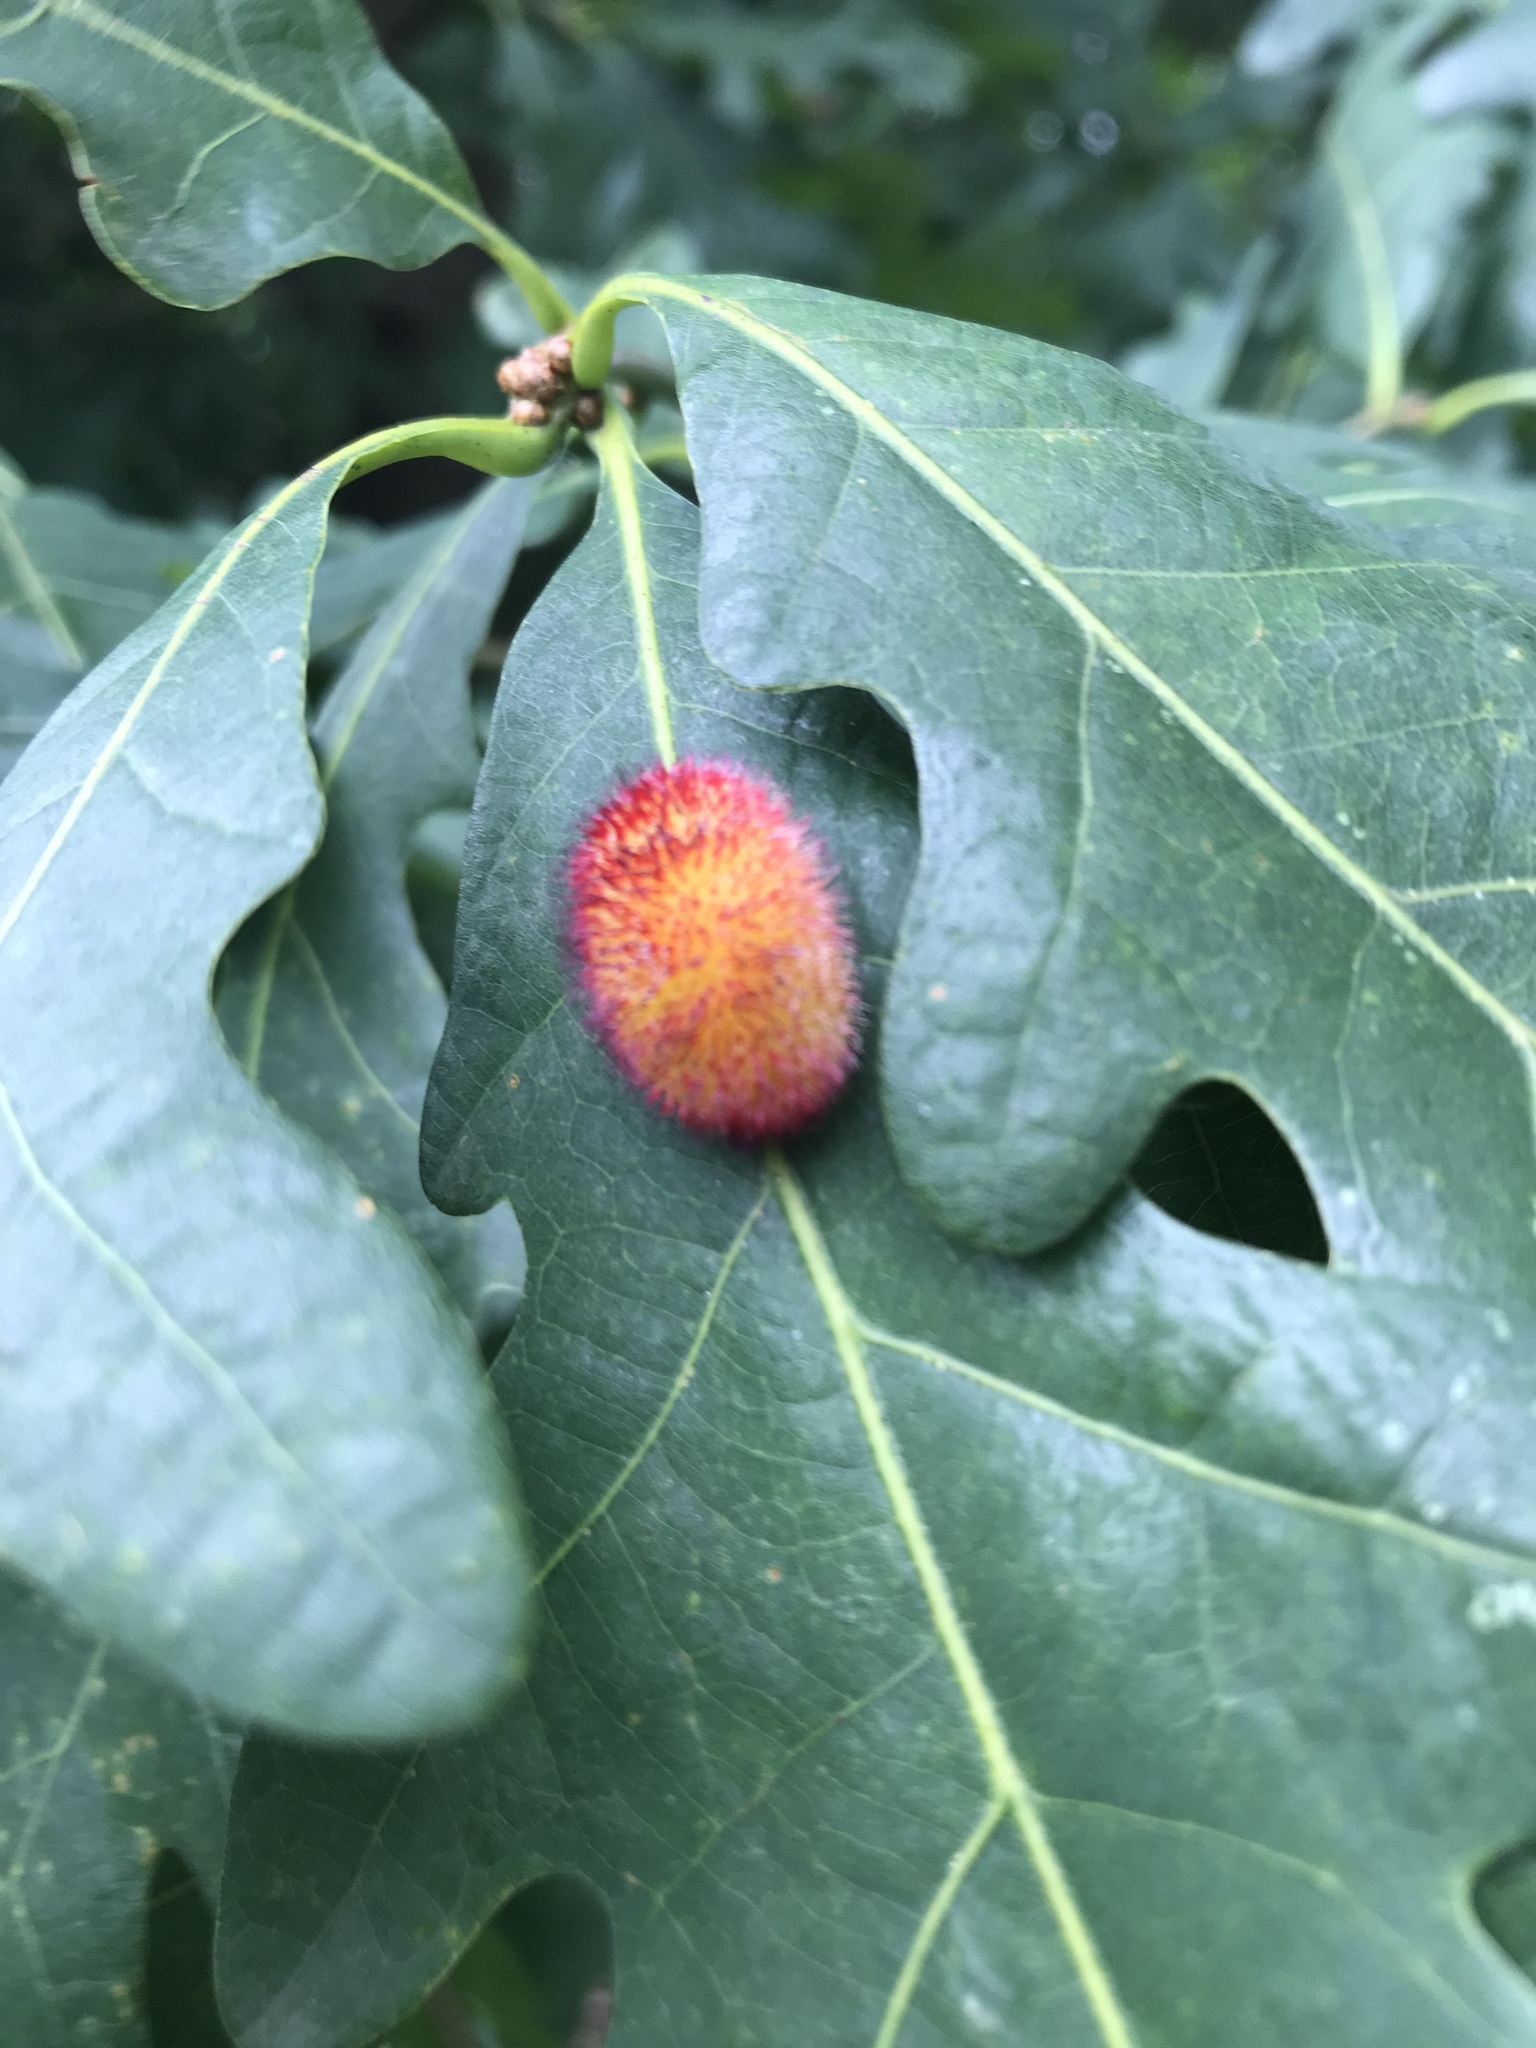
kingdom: Animalia
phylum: Arthropoda
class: Insecta
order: Hymenoptera
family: Cynipidae
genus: Acraspis
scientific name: Acraspis erinacei
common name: Hedgehog gall wasp
